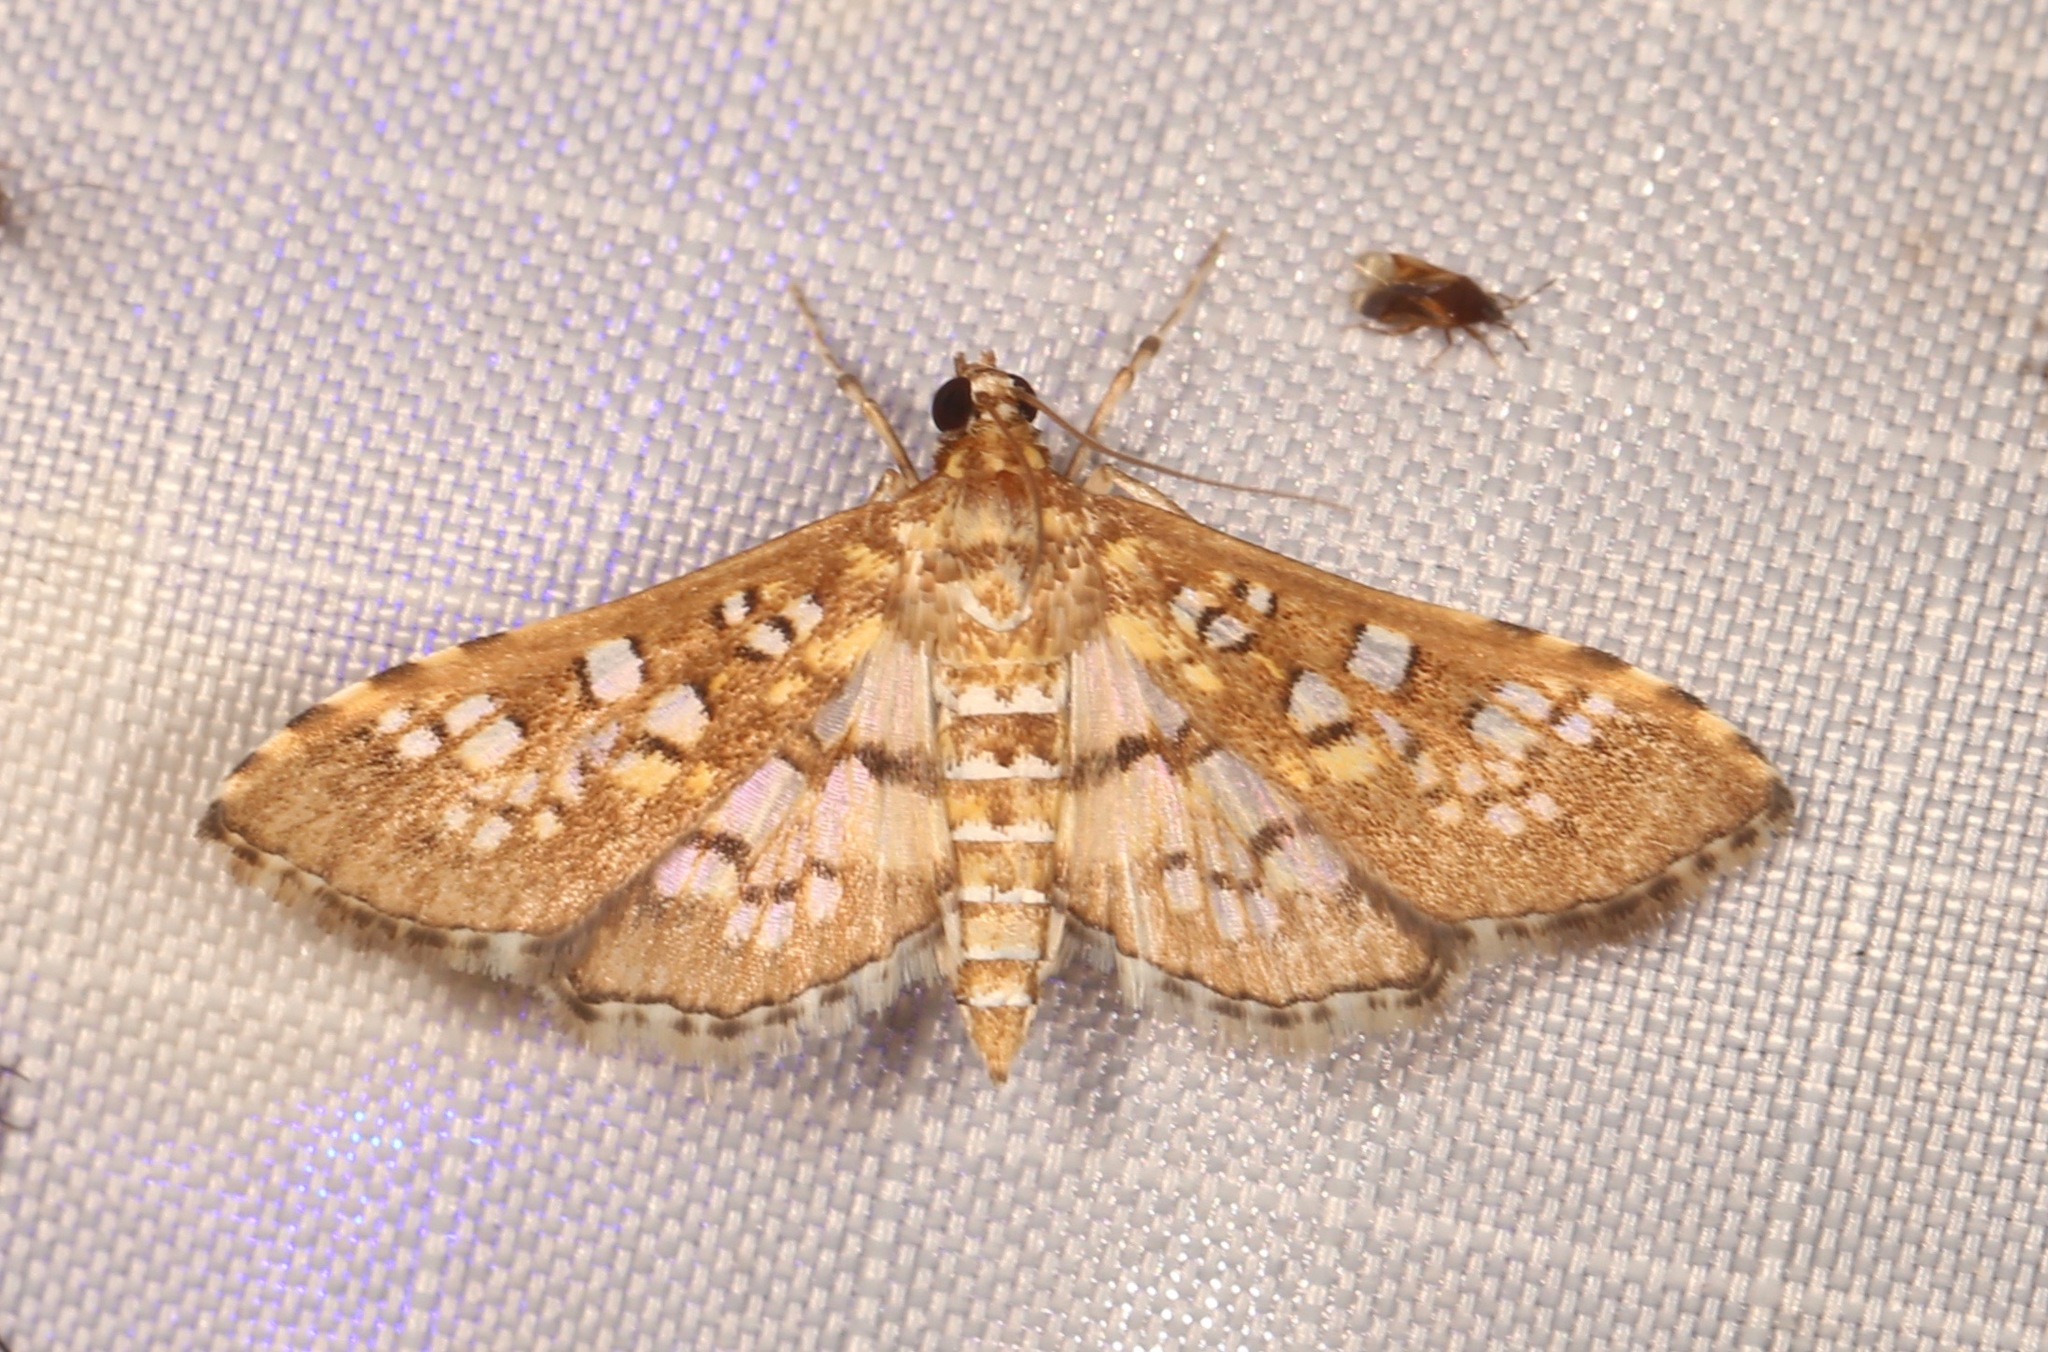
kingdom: Animalia
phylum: Arthropoda
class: Insecta
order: Lepidoptera
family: Crambidae
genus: Samea
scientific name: Samea ecclesialis
